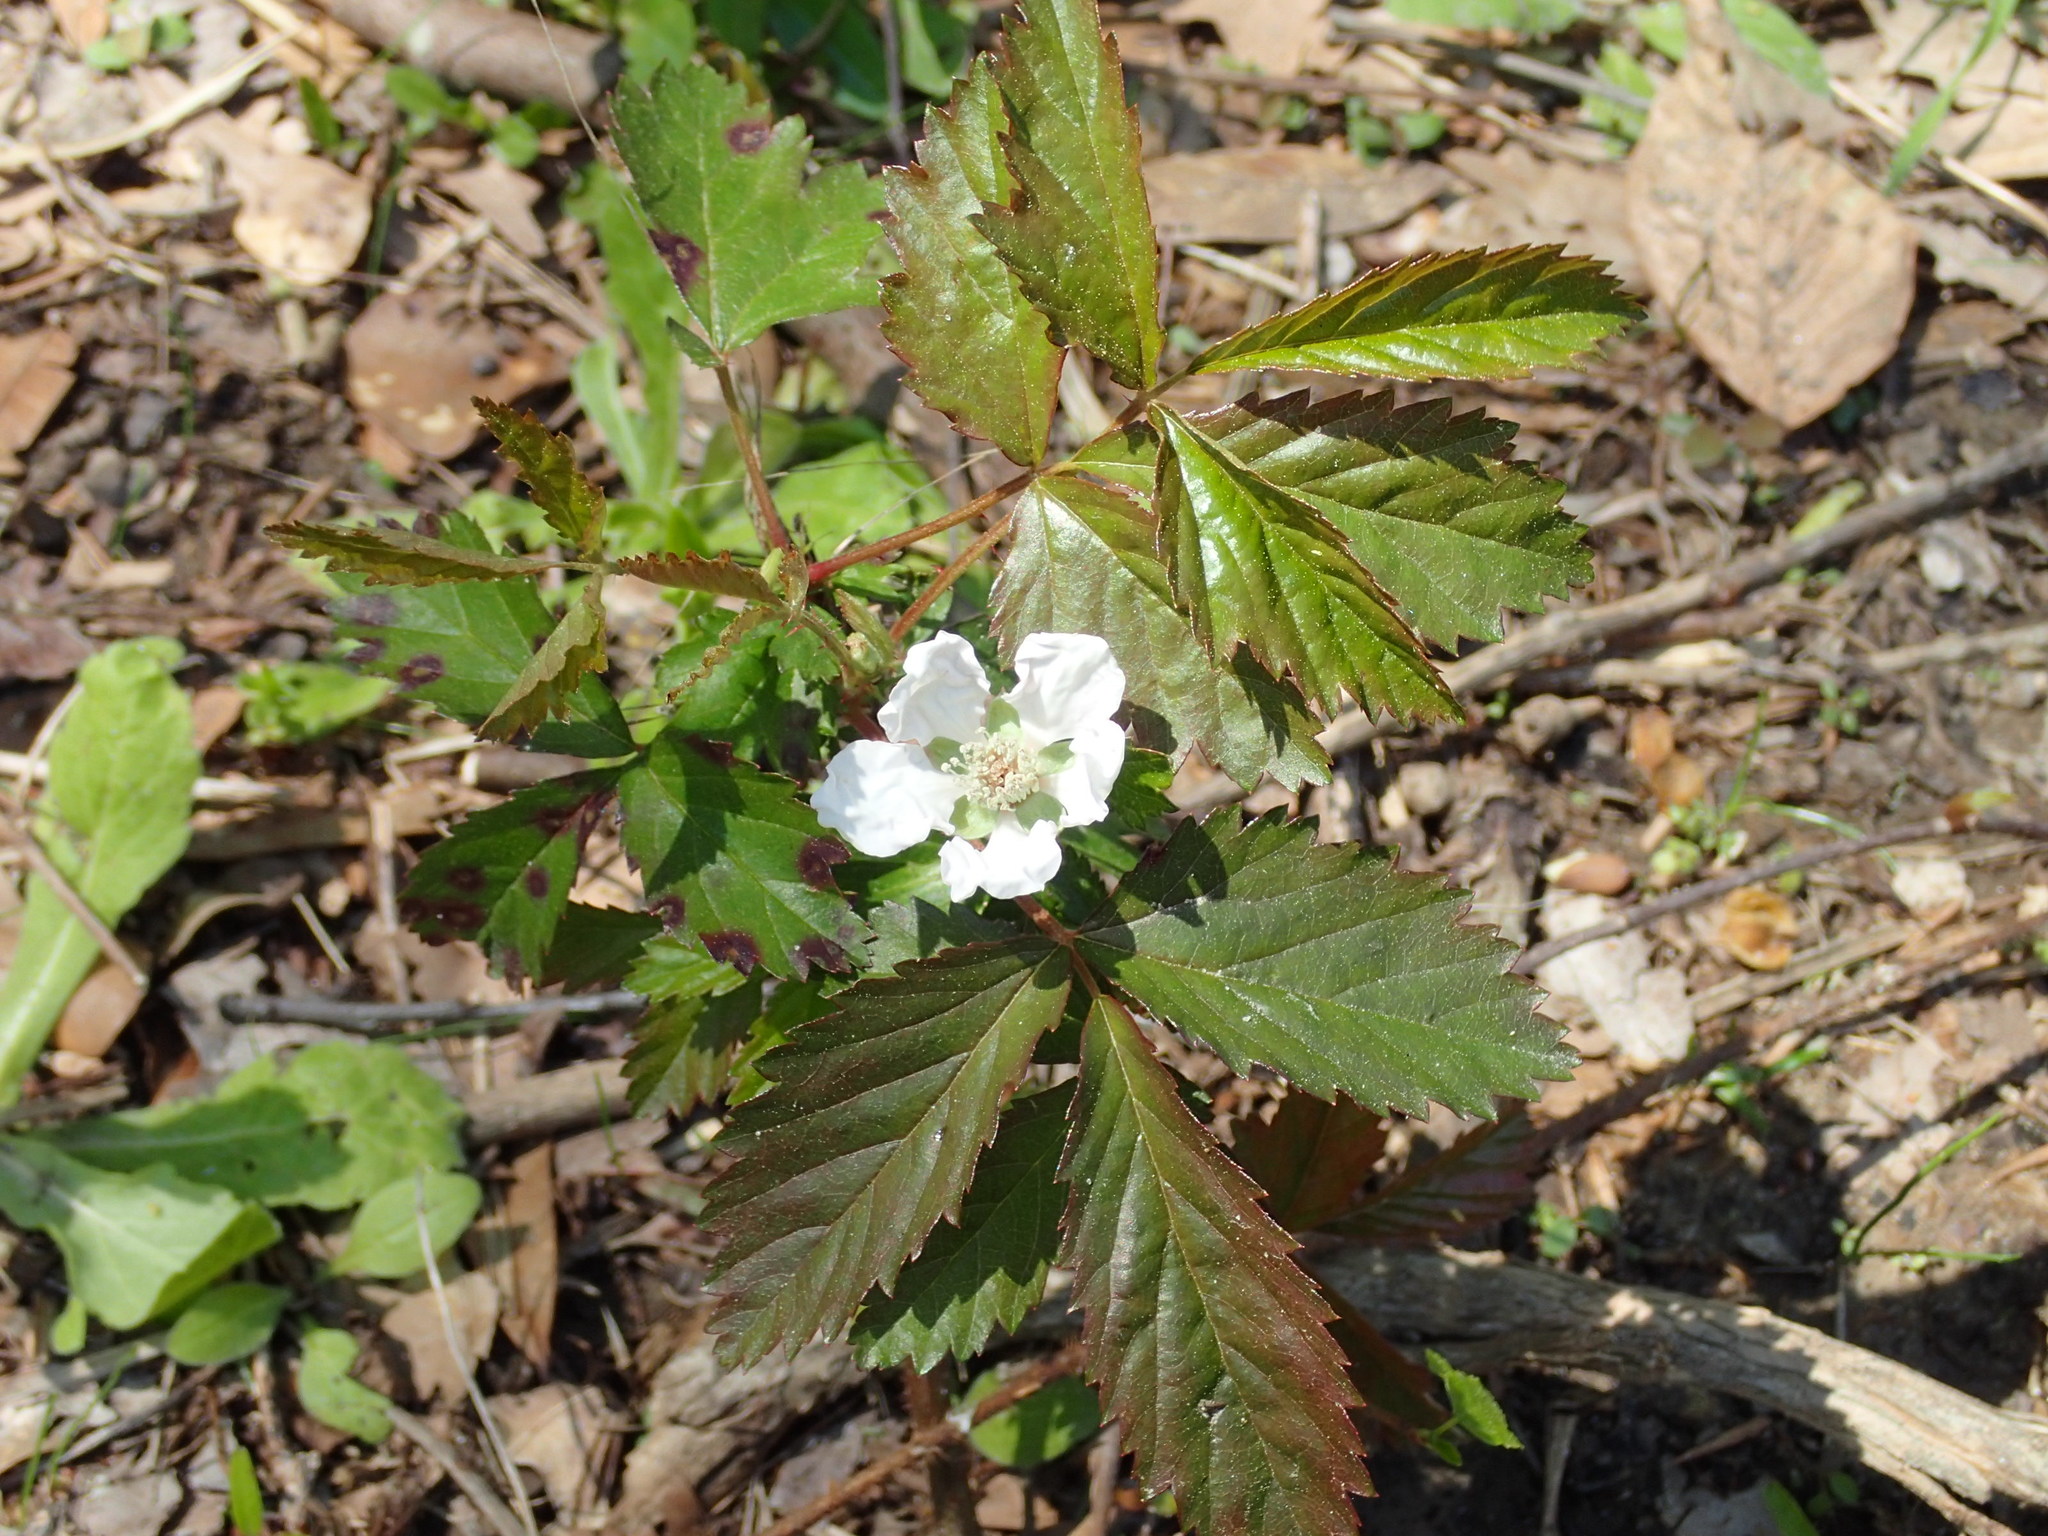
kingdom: Plantae
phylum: Tracheophyta
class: Magnoliopsida
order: Rosales
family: Rosaceae
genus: Rubus
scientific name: Rubus trivialis
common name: Southern dewberry
